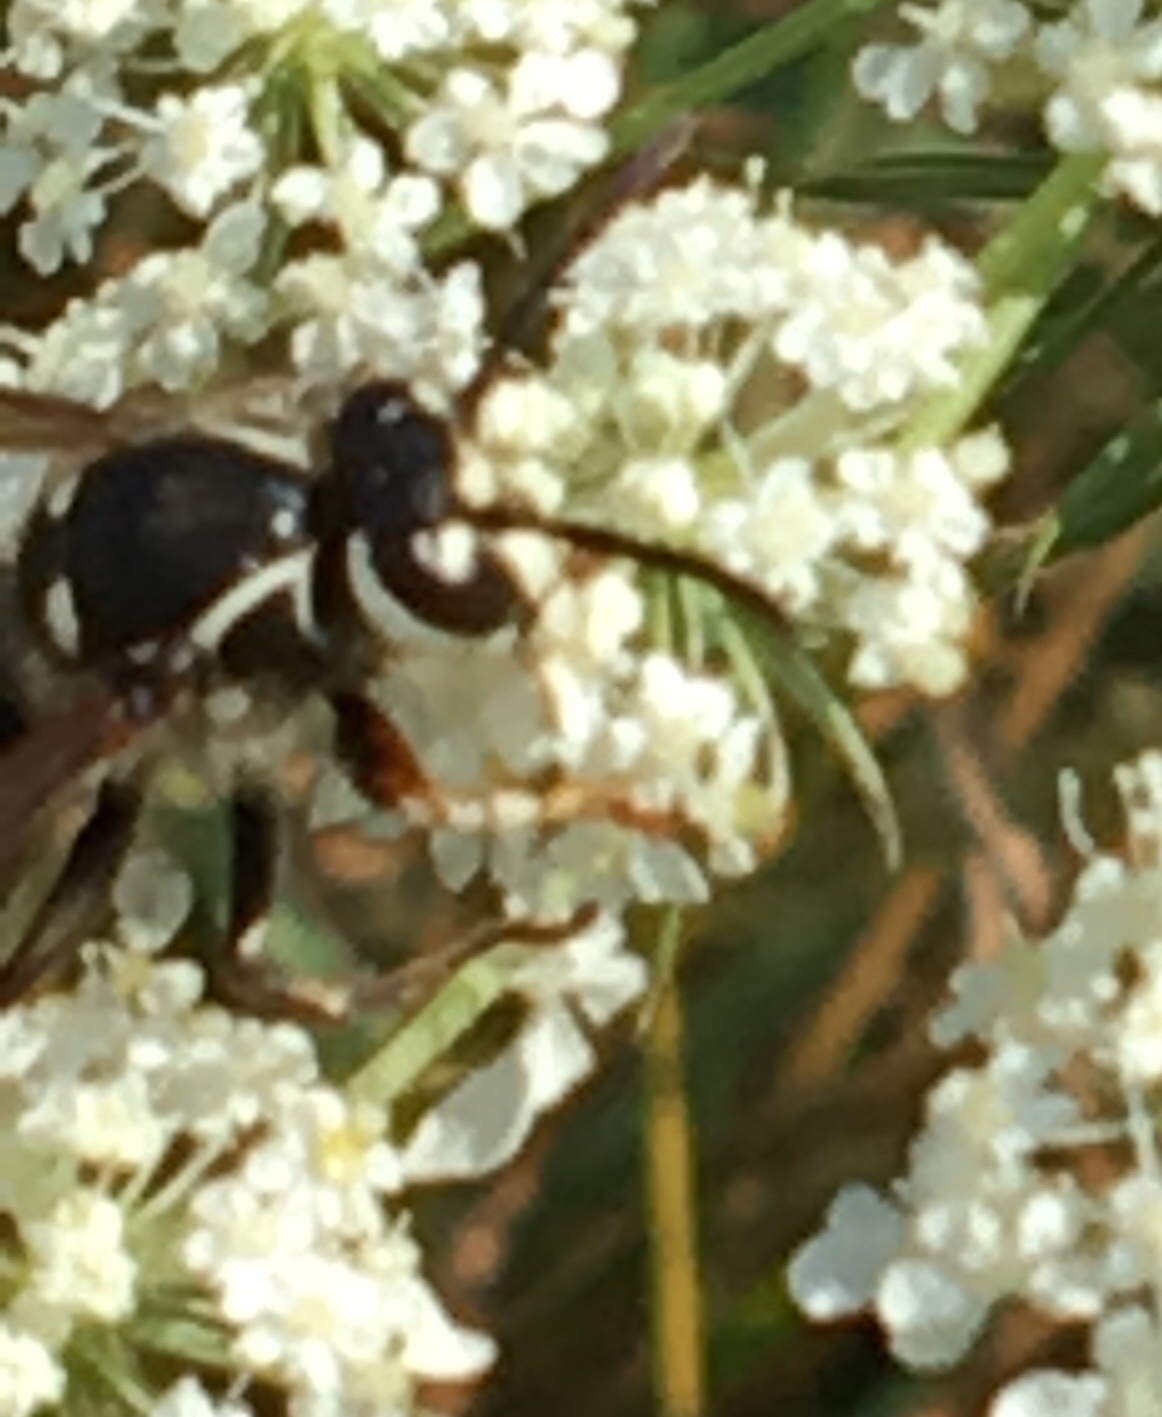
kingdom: Animalia
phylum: Arthropoda
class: Insecta
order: Hymenoptera
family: Vespidae
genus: Dolichovespula
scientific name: Dolichovespula maculata
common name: Bald-faced hornet
